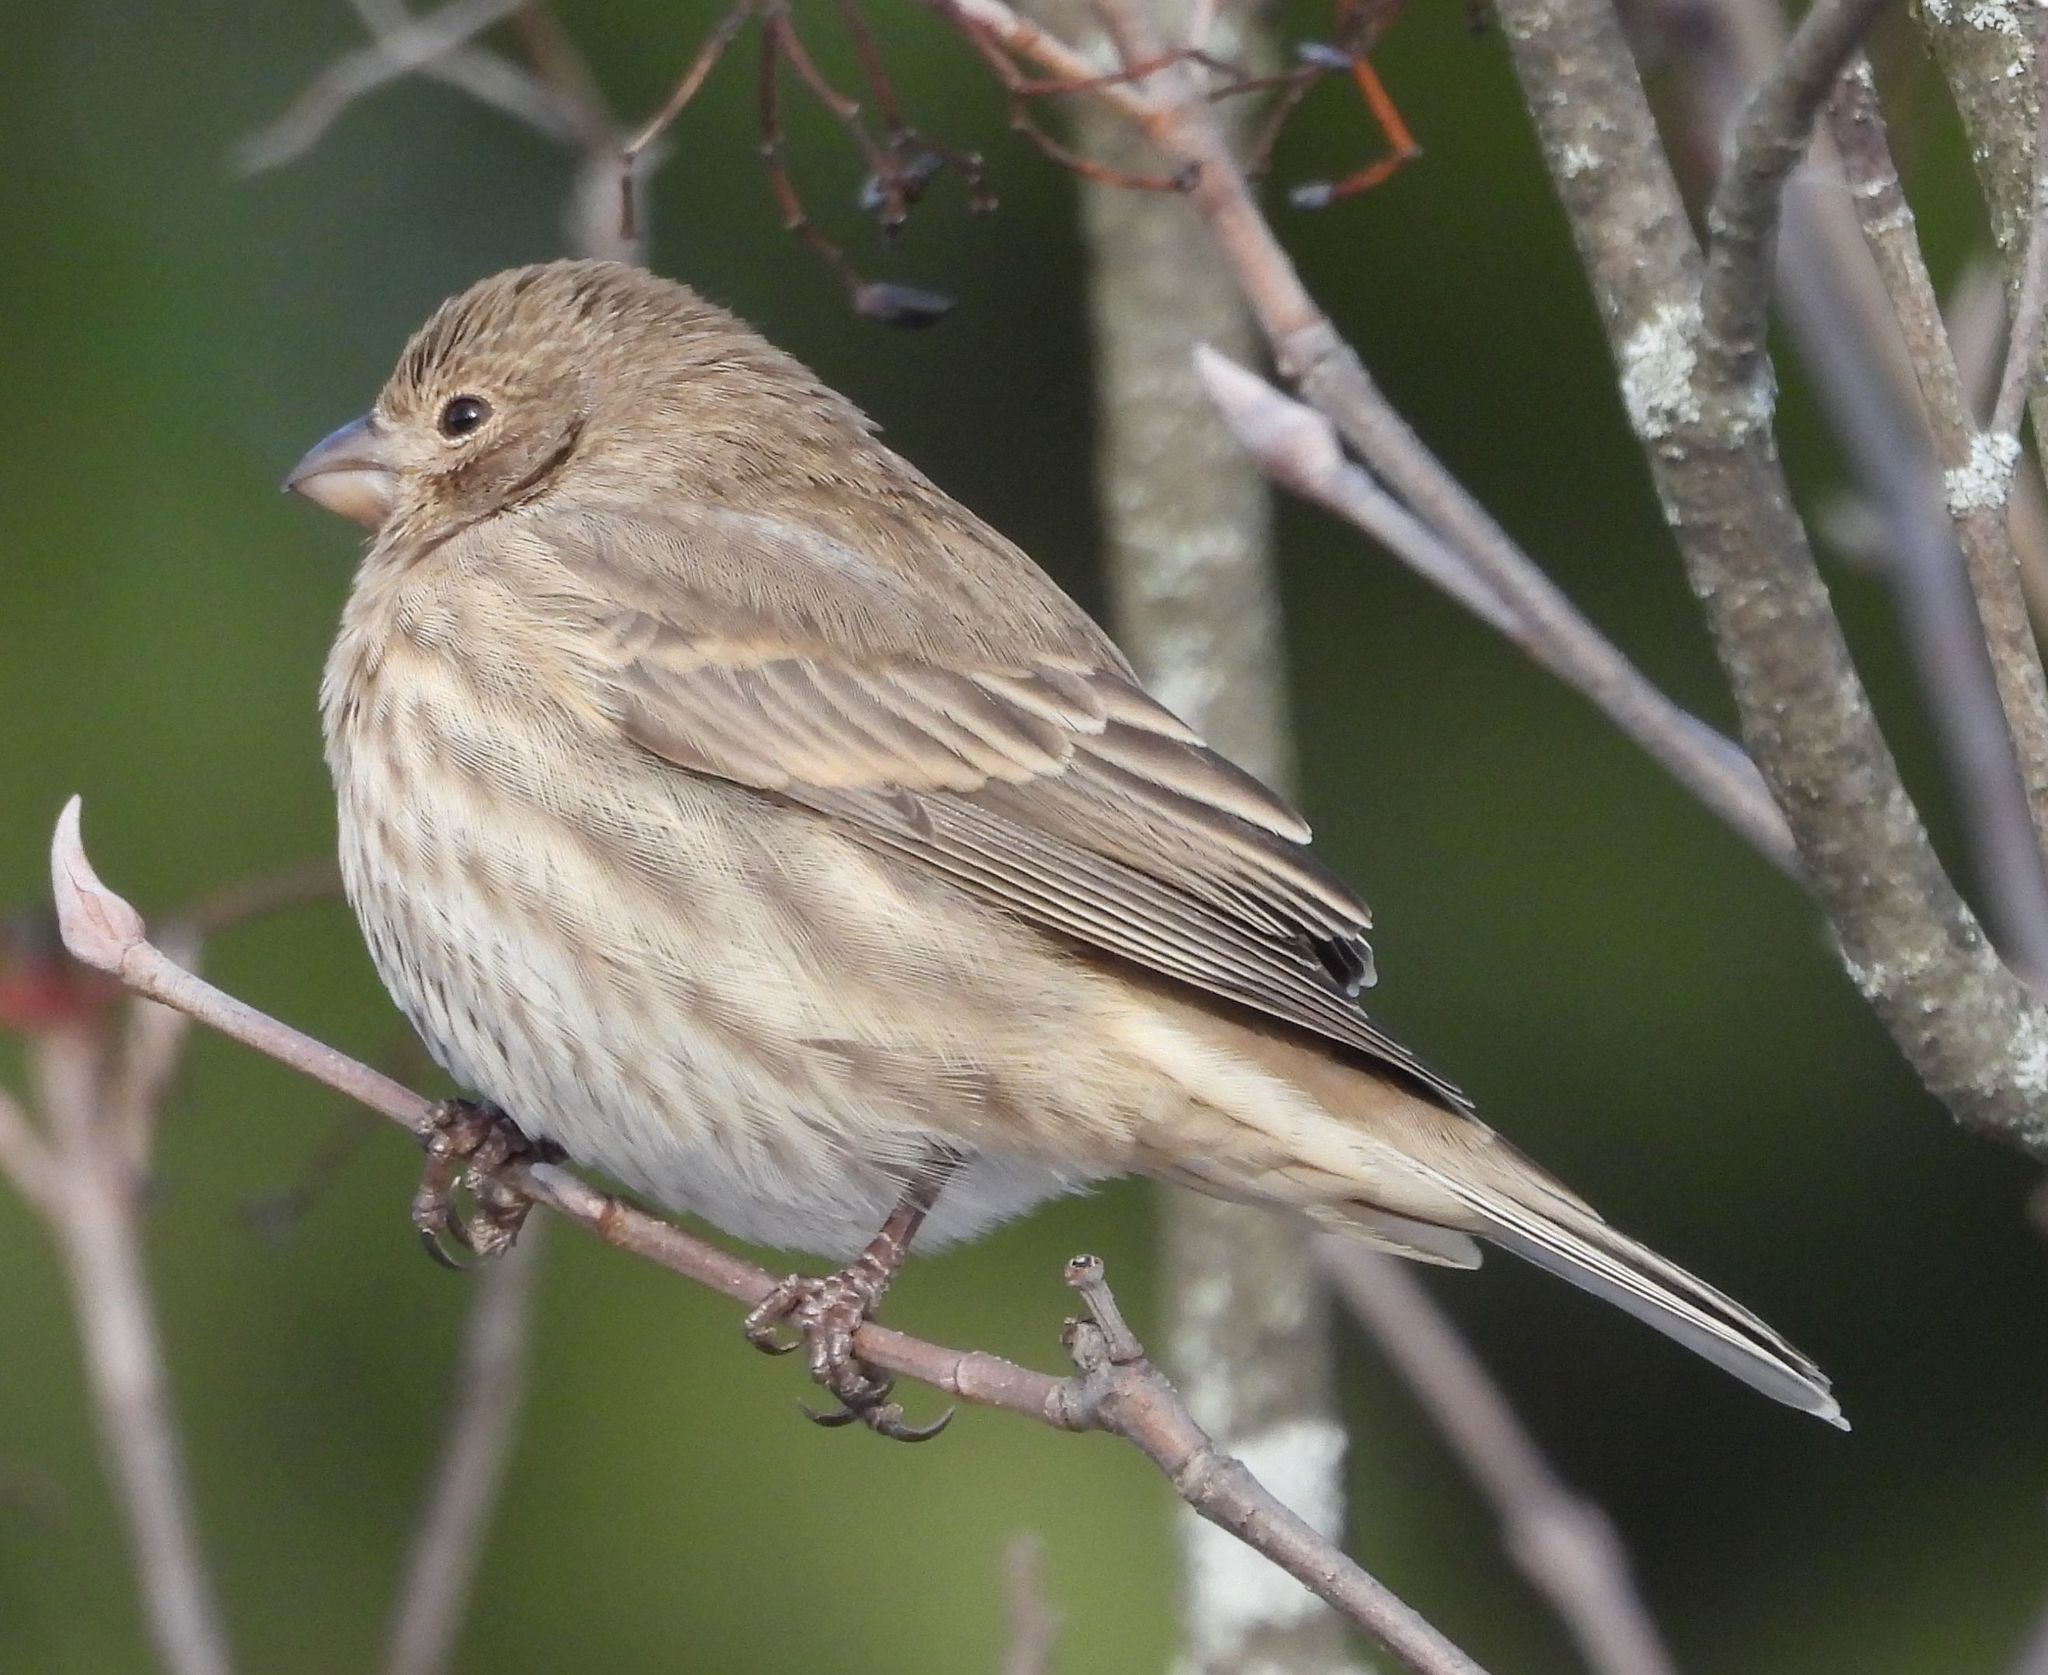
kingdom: Animalia
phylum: Chordata
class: Aves
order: Passeriformes
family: Fringillidae
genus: Haemorhous
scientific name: Haemorhous mexicanus
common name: House finch
